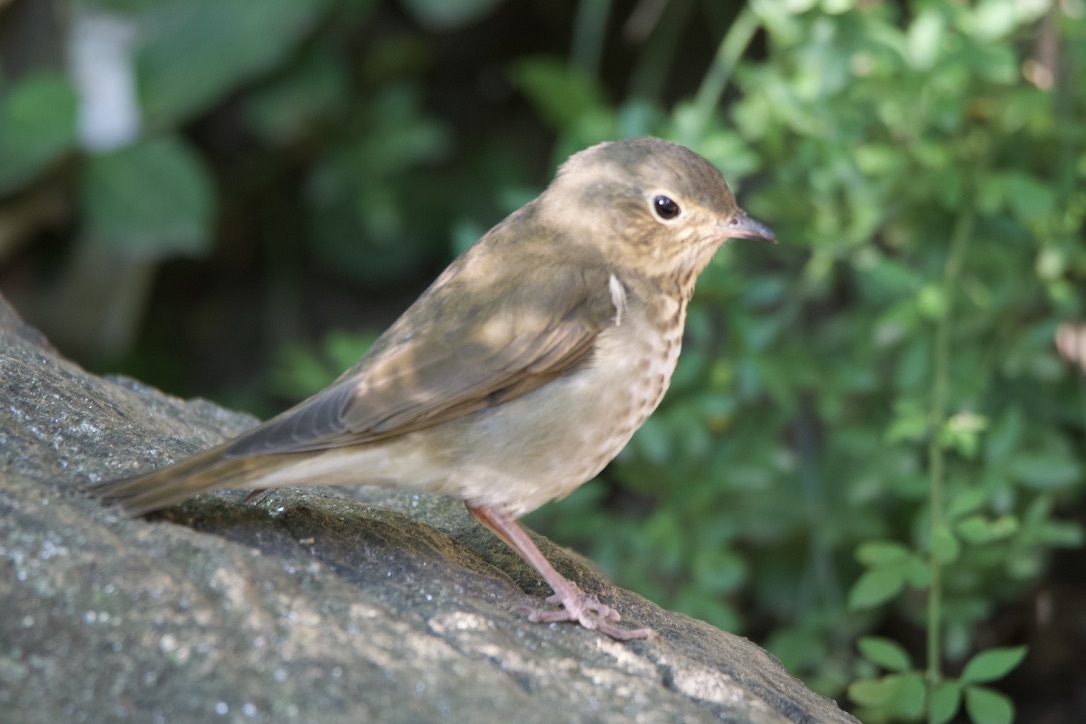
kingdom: Animalia
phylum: Chordata
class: Aves
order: Passeriformes
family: Turdidae
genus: Catharus
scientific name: Catharus ustulatus
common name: Swainson's thrush
